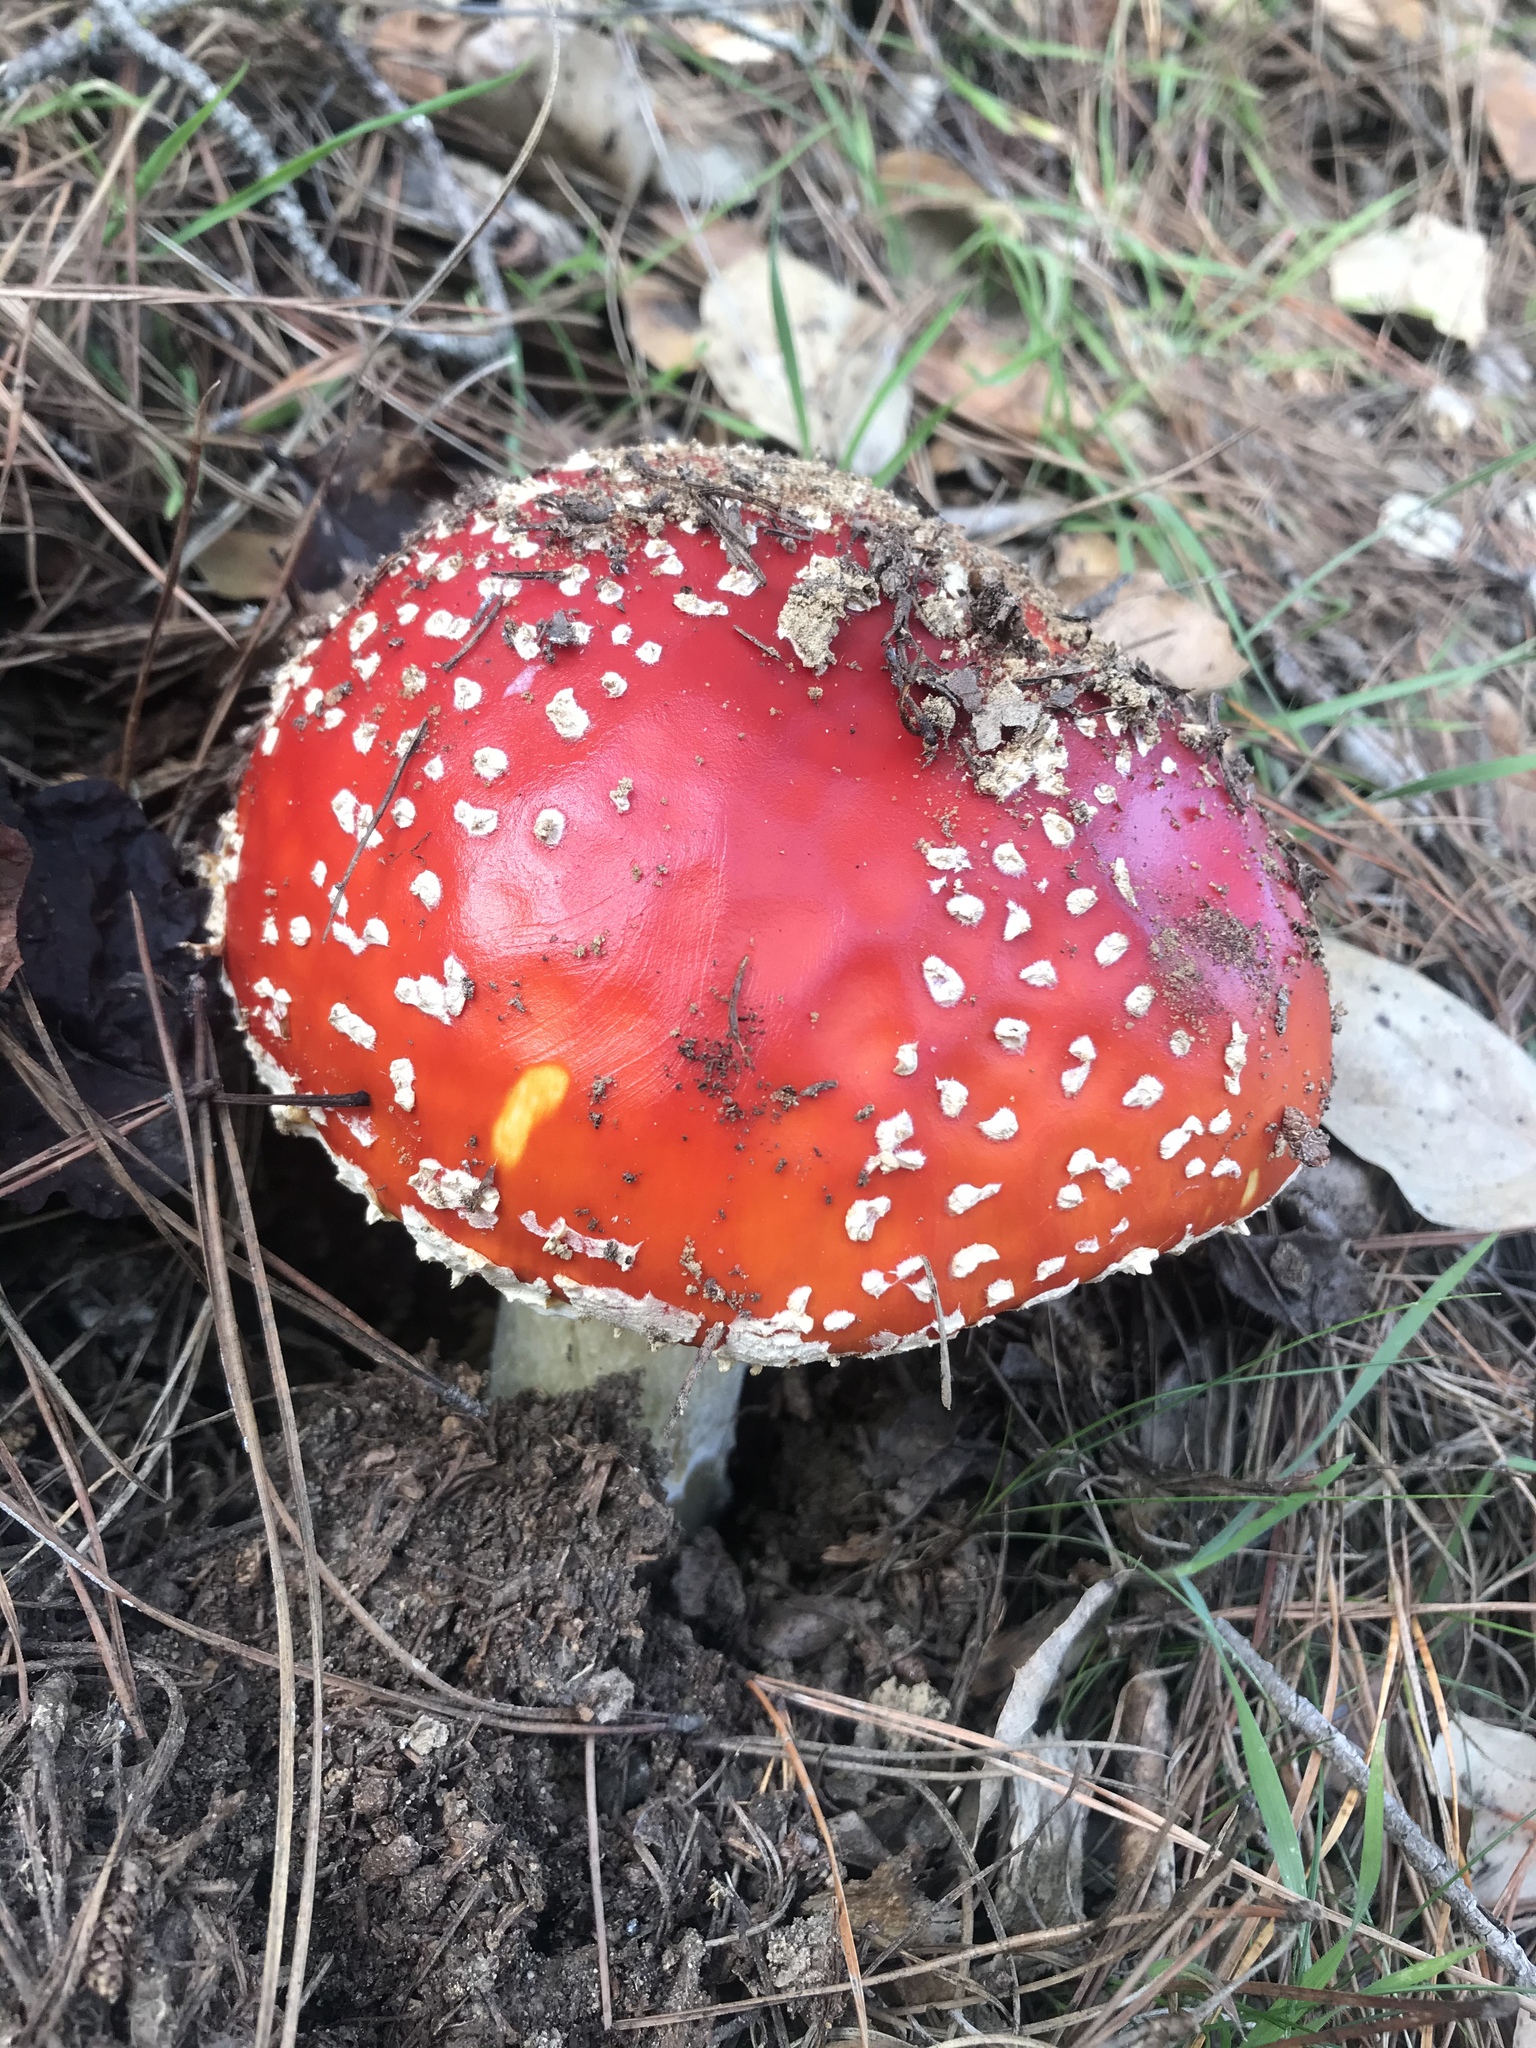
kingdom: Fungi
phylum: Basidiomycota
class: Agaricomycetes
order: Agaricales
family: Amanitaceae
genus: Amanita
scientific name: Amanita muscaria
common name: Fly agaric
